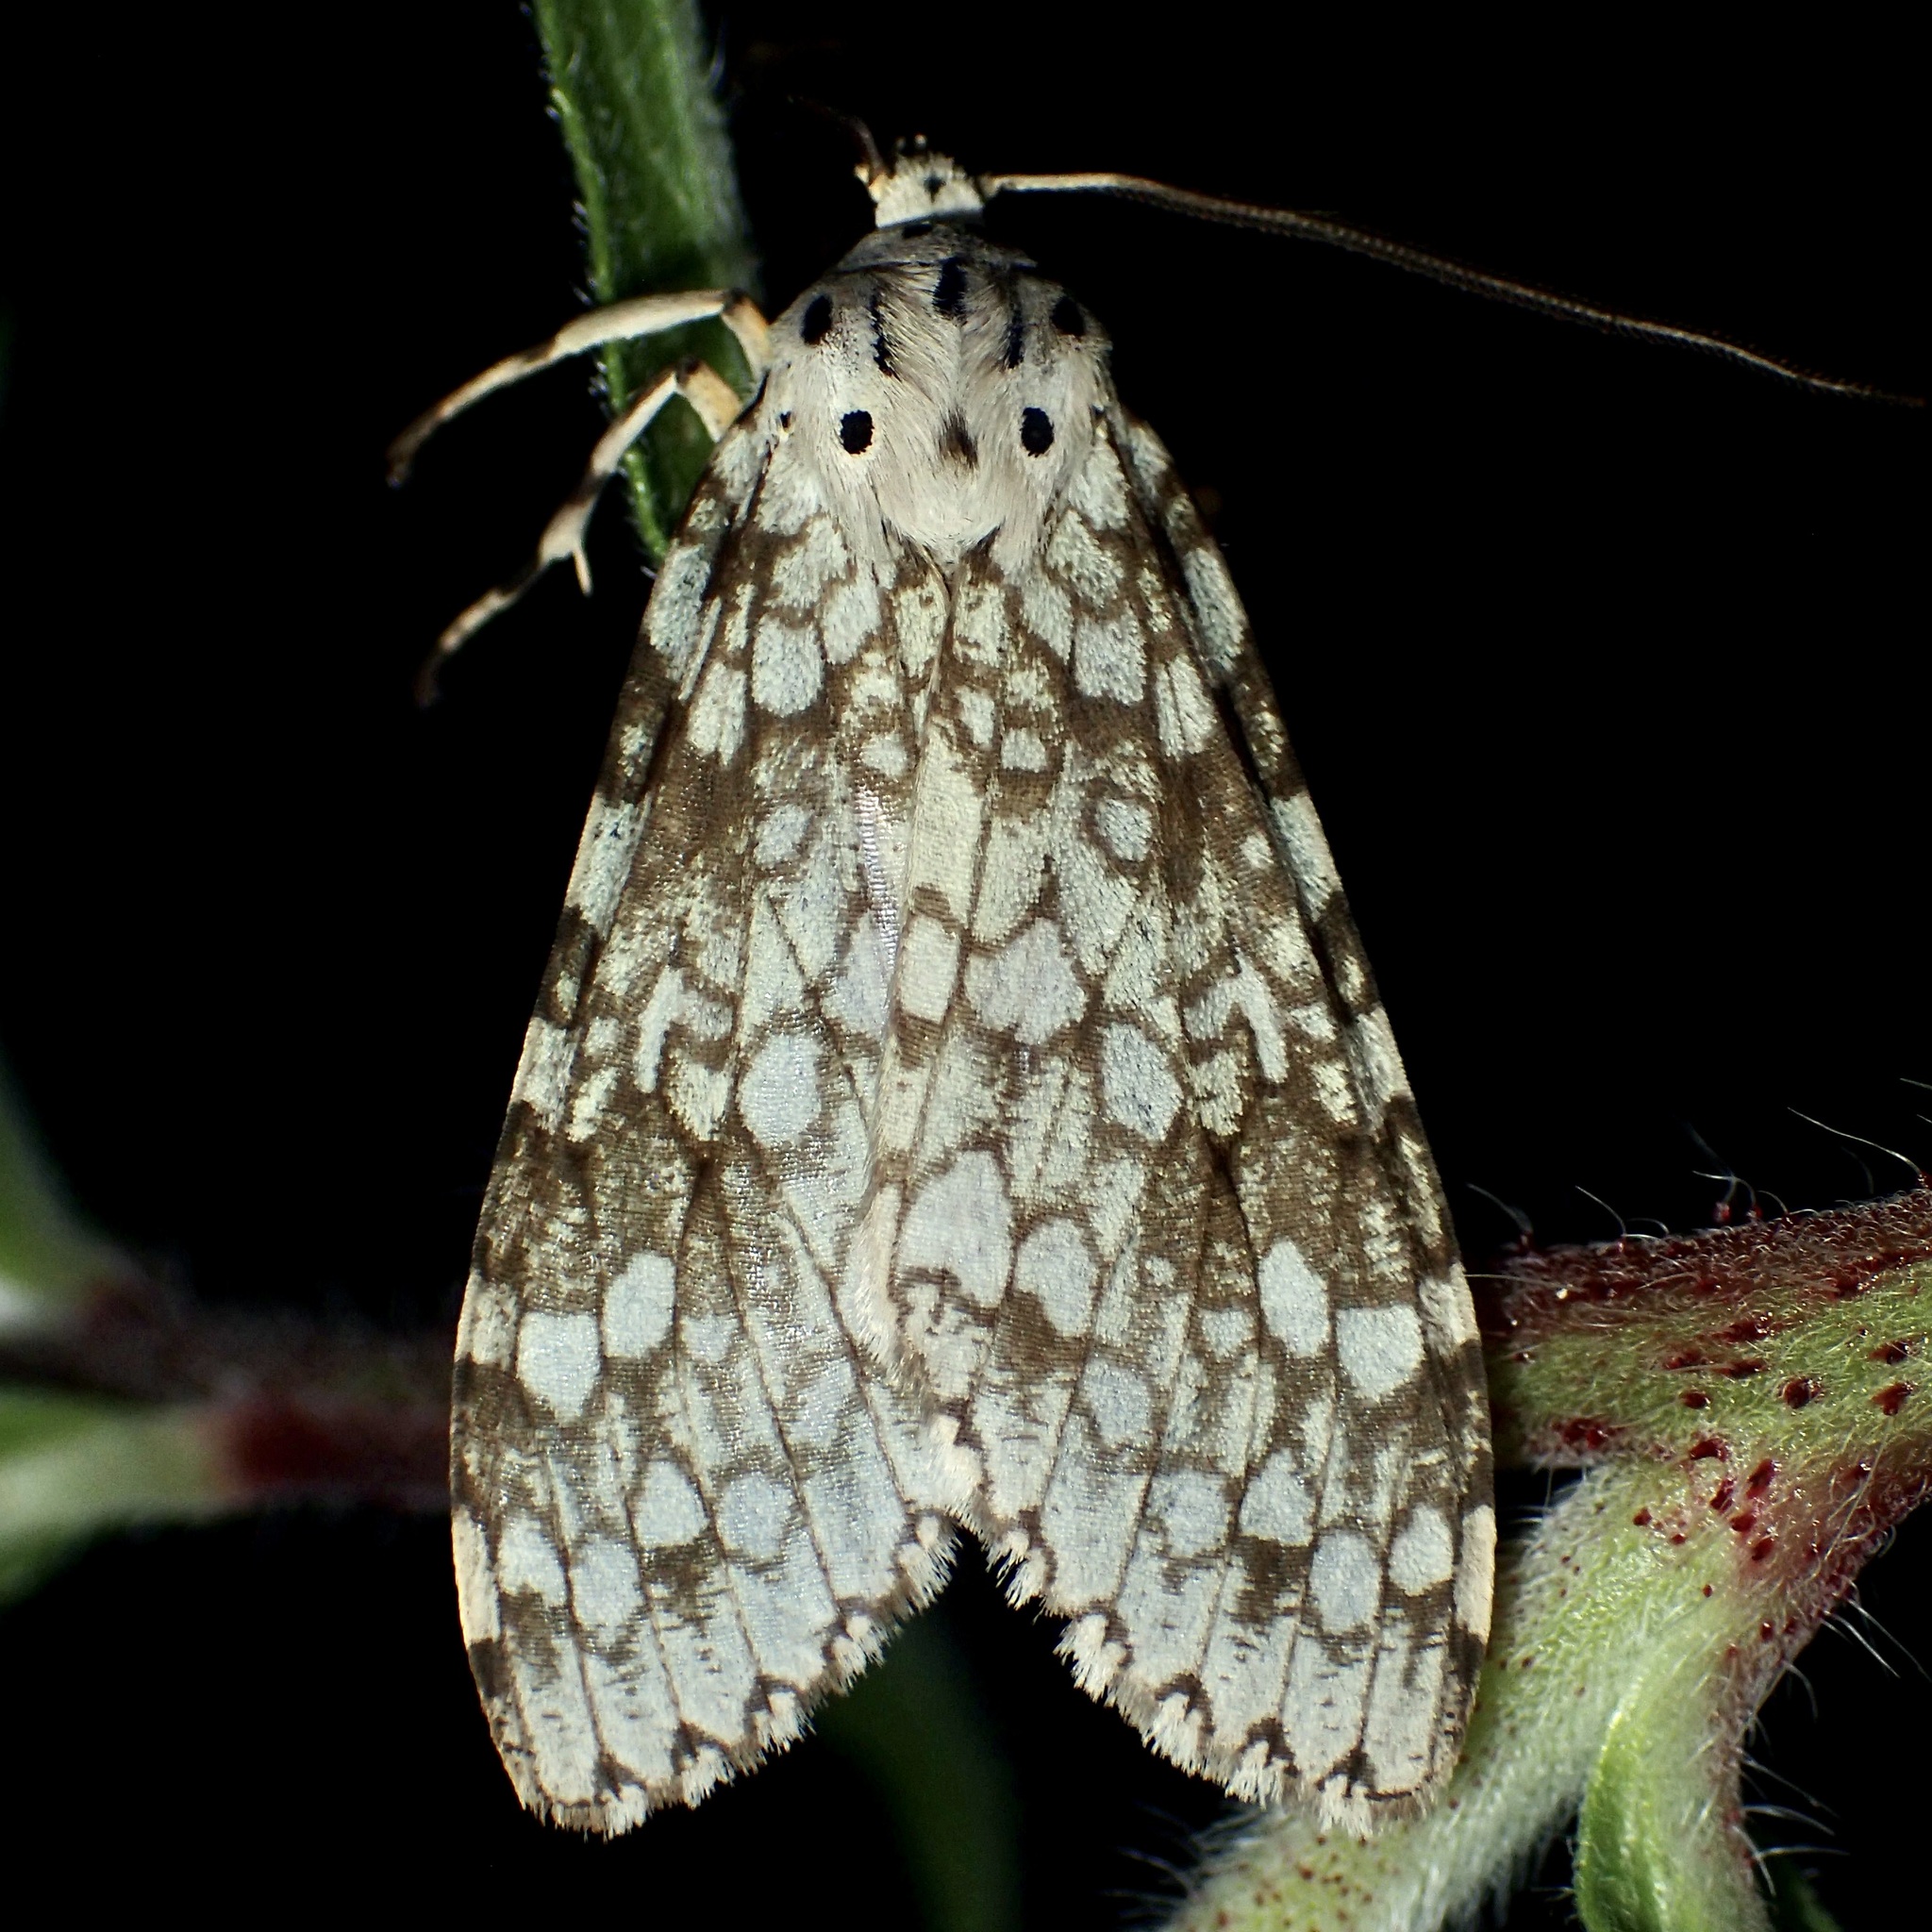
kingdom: Animalia
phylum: Arthropoda
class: Insecta
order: Lepidoptera
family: Erebidae
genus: Carales
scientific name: Carales arizonensis
